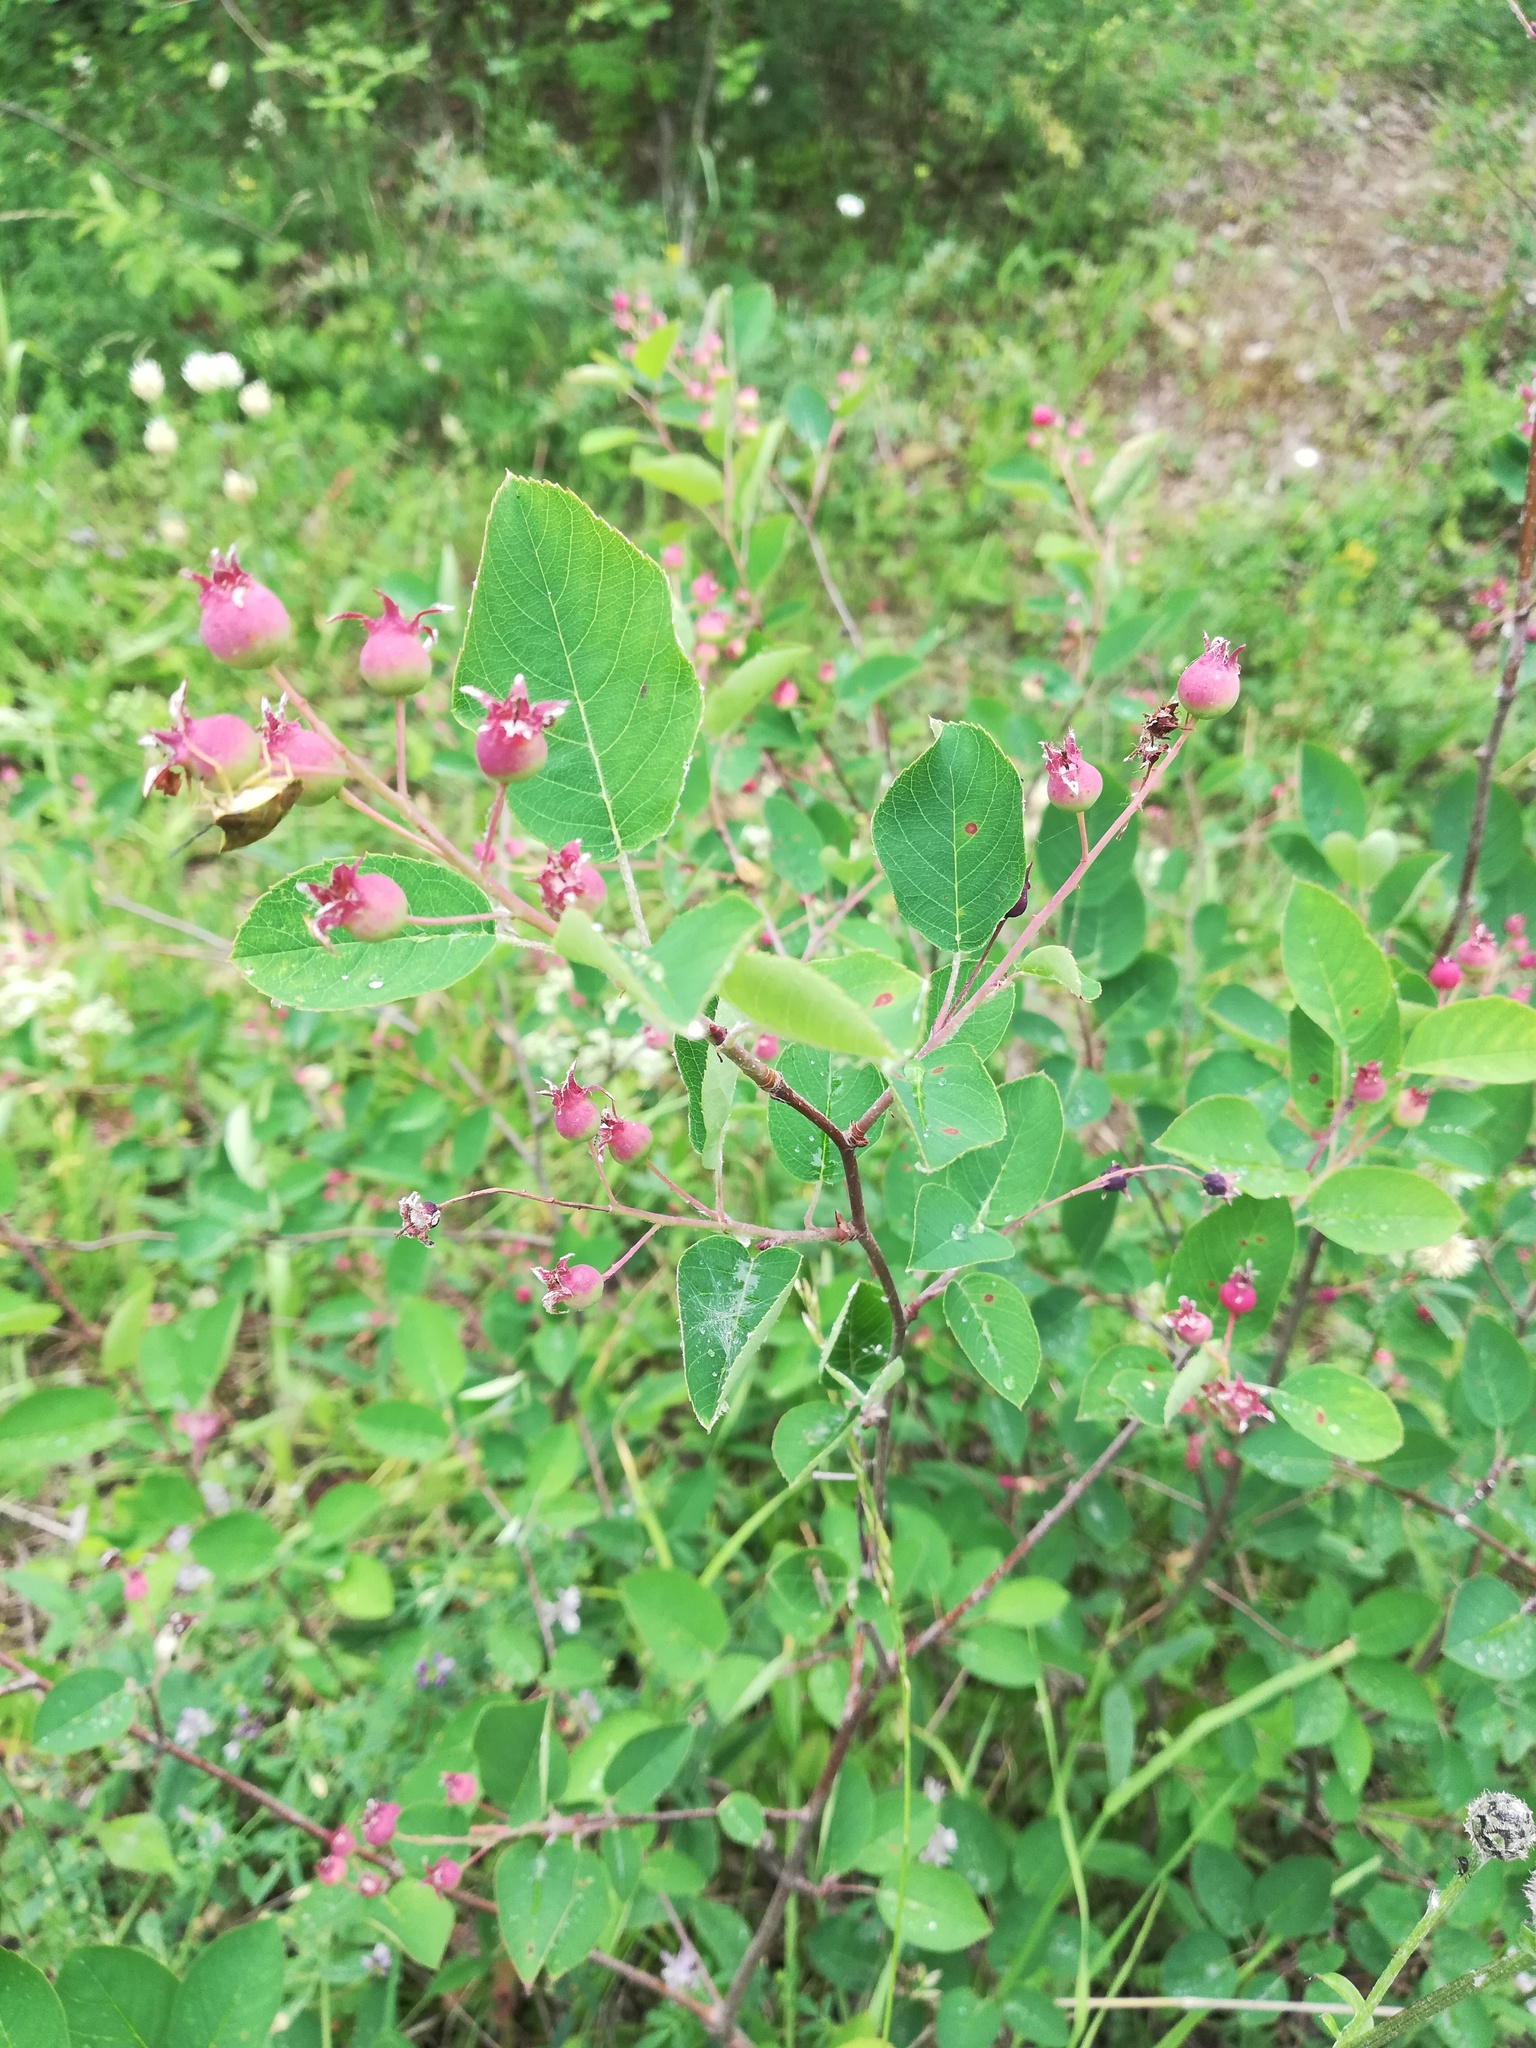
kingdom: Plantae
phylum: Tracheophyta
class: Magnoliopsida
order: Rosales
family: Rosaceae
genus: Amelanchier
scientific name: Amelanchier
